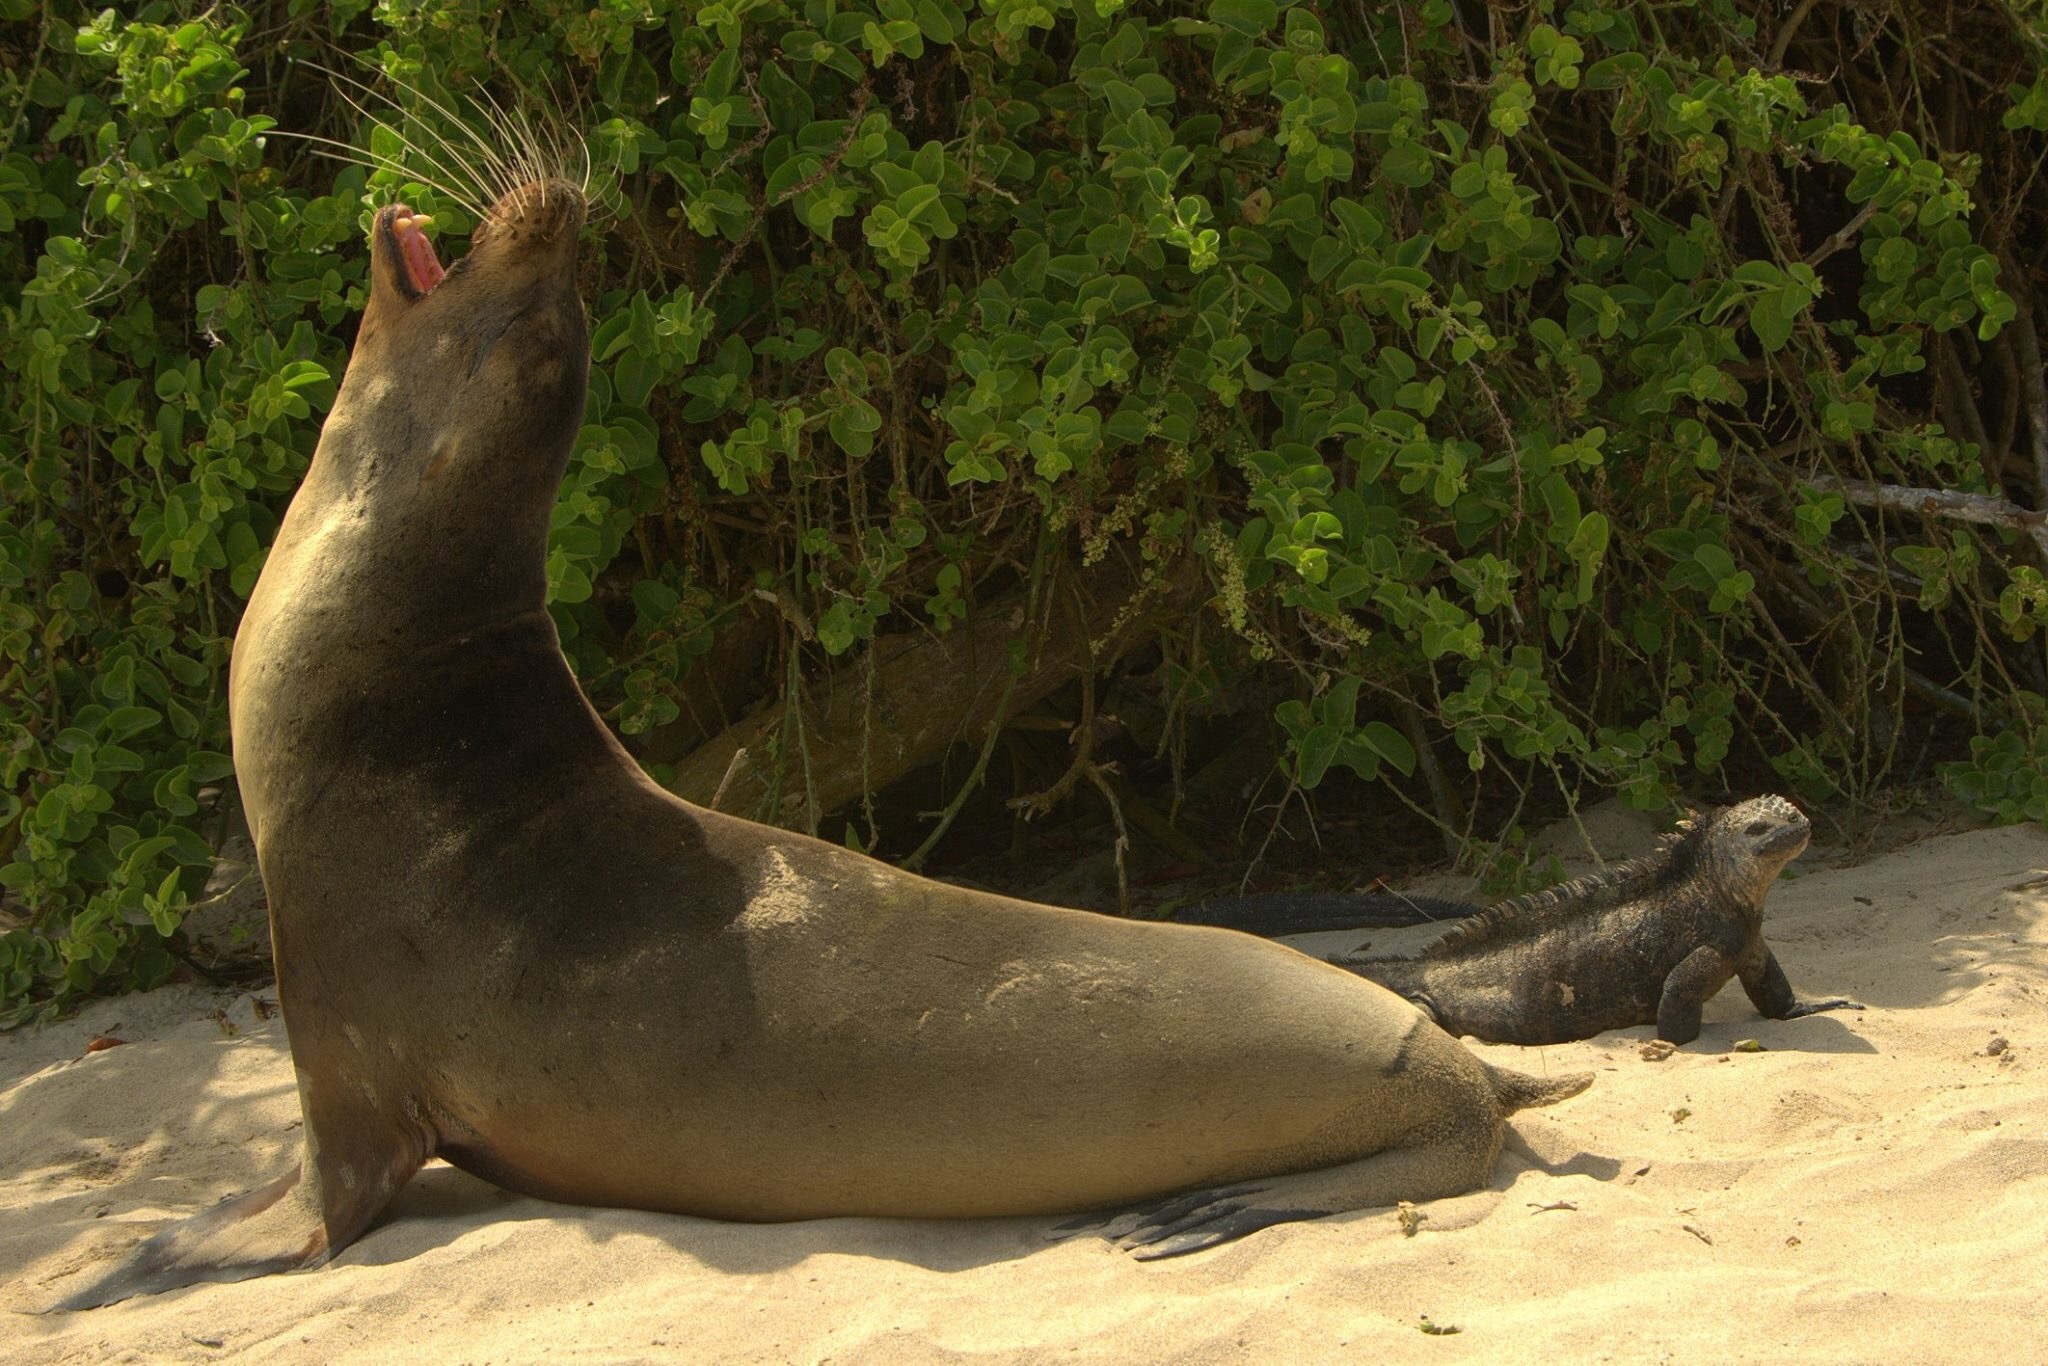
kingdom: Animalia
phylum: Chordata
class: Mammalia
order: Carnivora
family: Otariidae
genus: Zalophus
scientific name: Zalophus wollebaeki
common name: Galapagos sea lion
